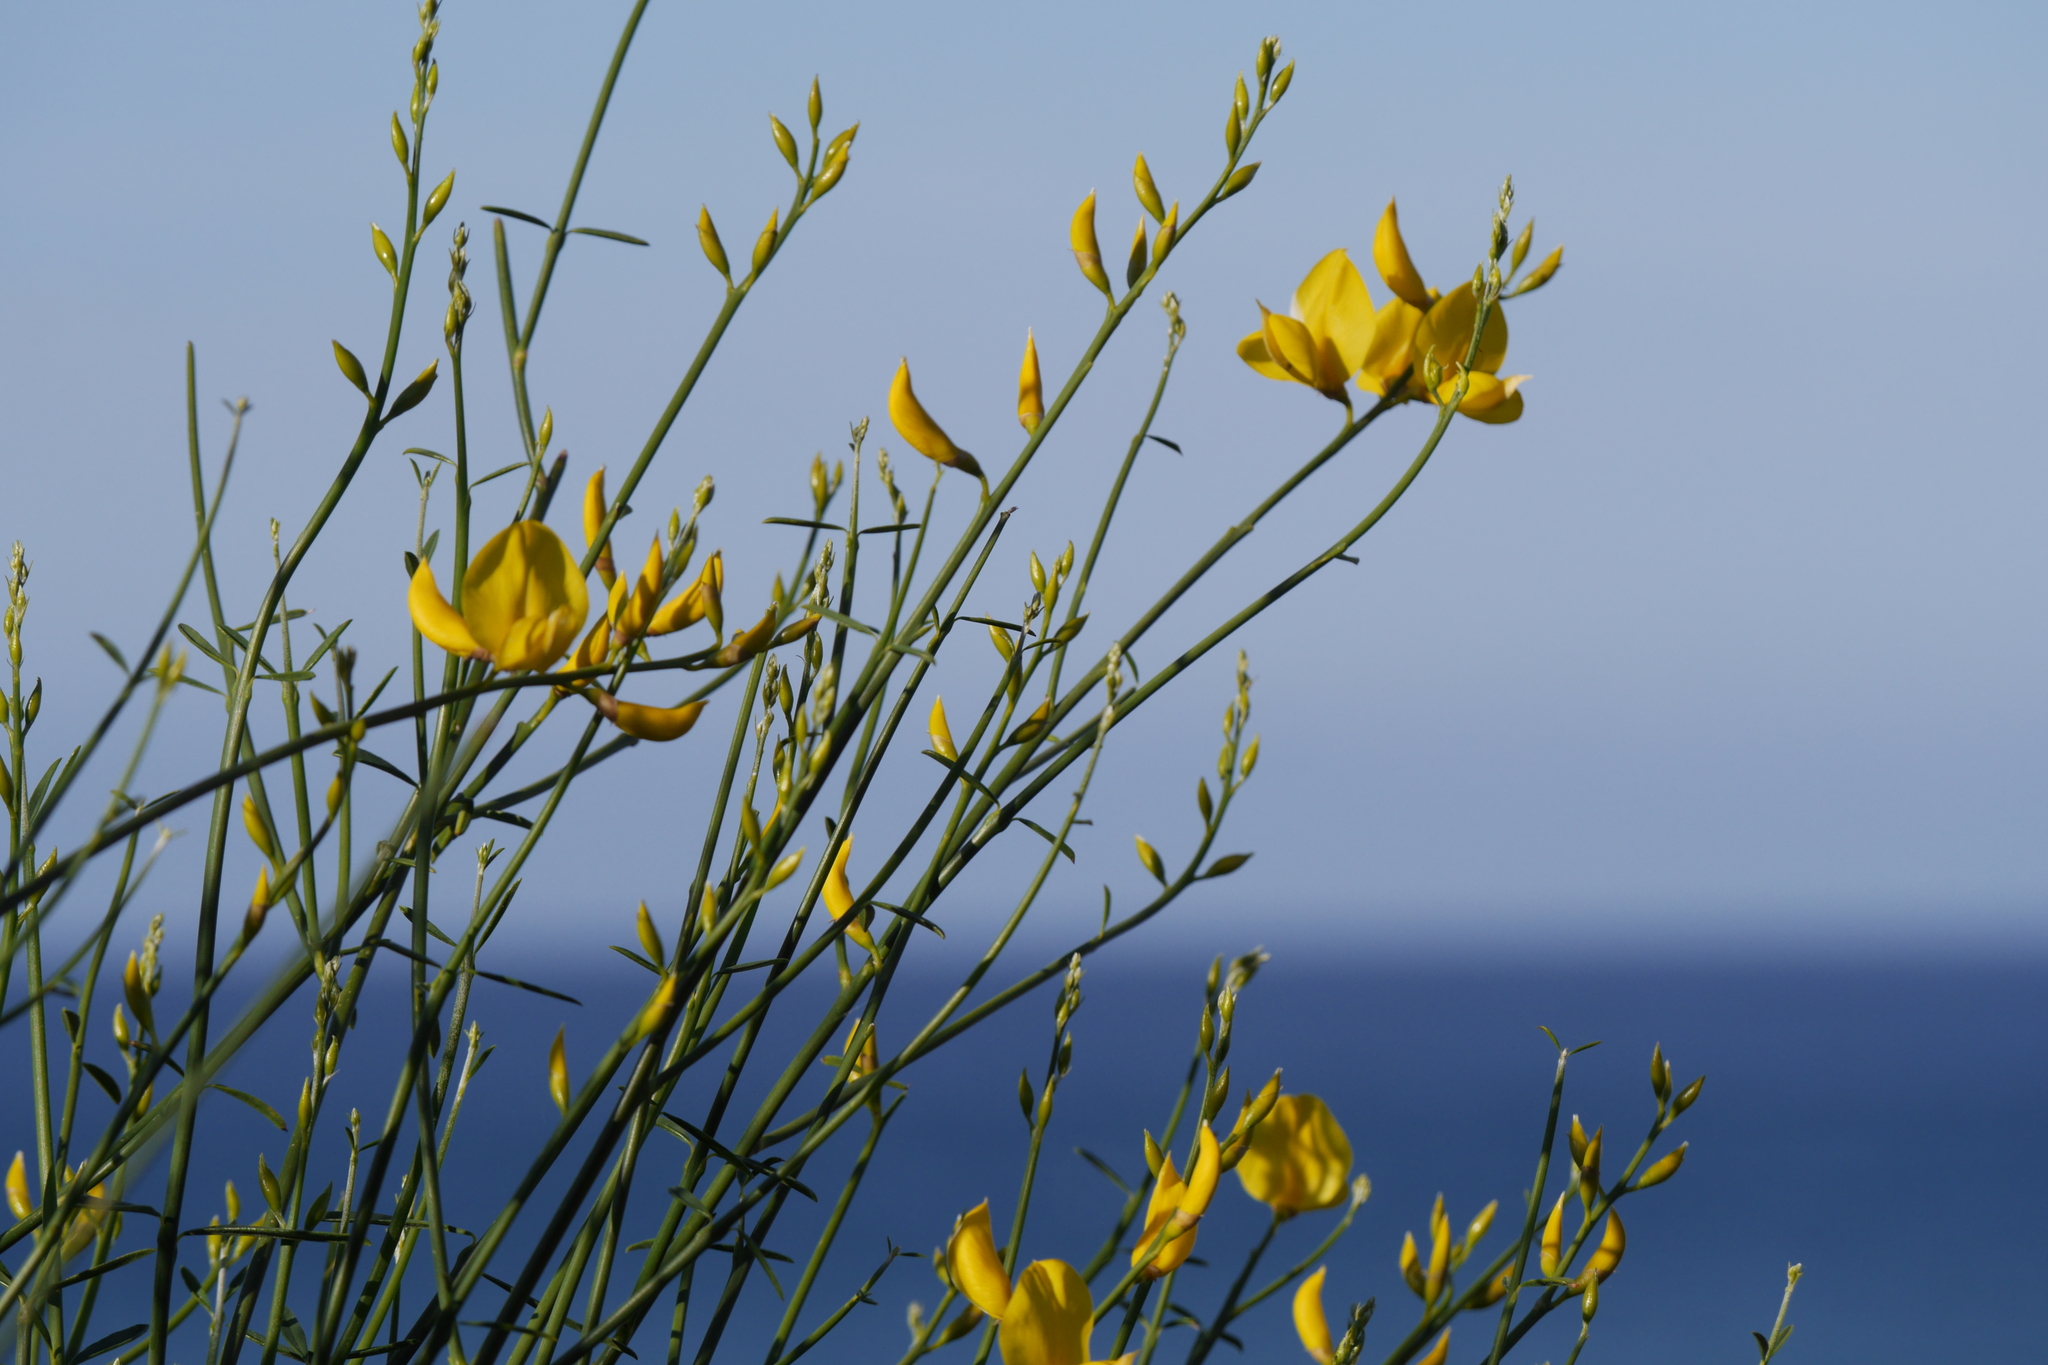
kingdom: Plantae
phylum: Tracheophyta
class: Magnoliopsida
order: Fabales
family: Fabaceae
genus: Spartium
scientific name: Spartium junceum
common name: Spanish broom
